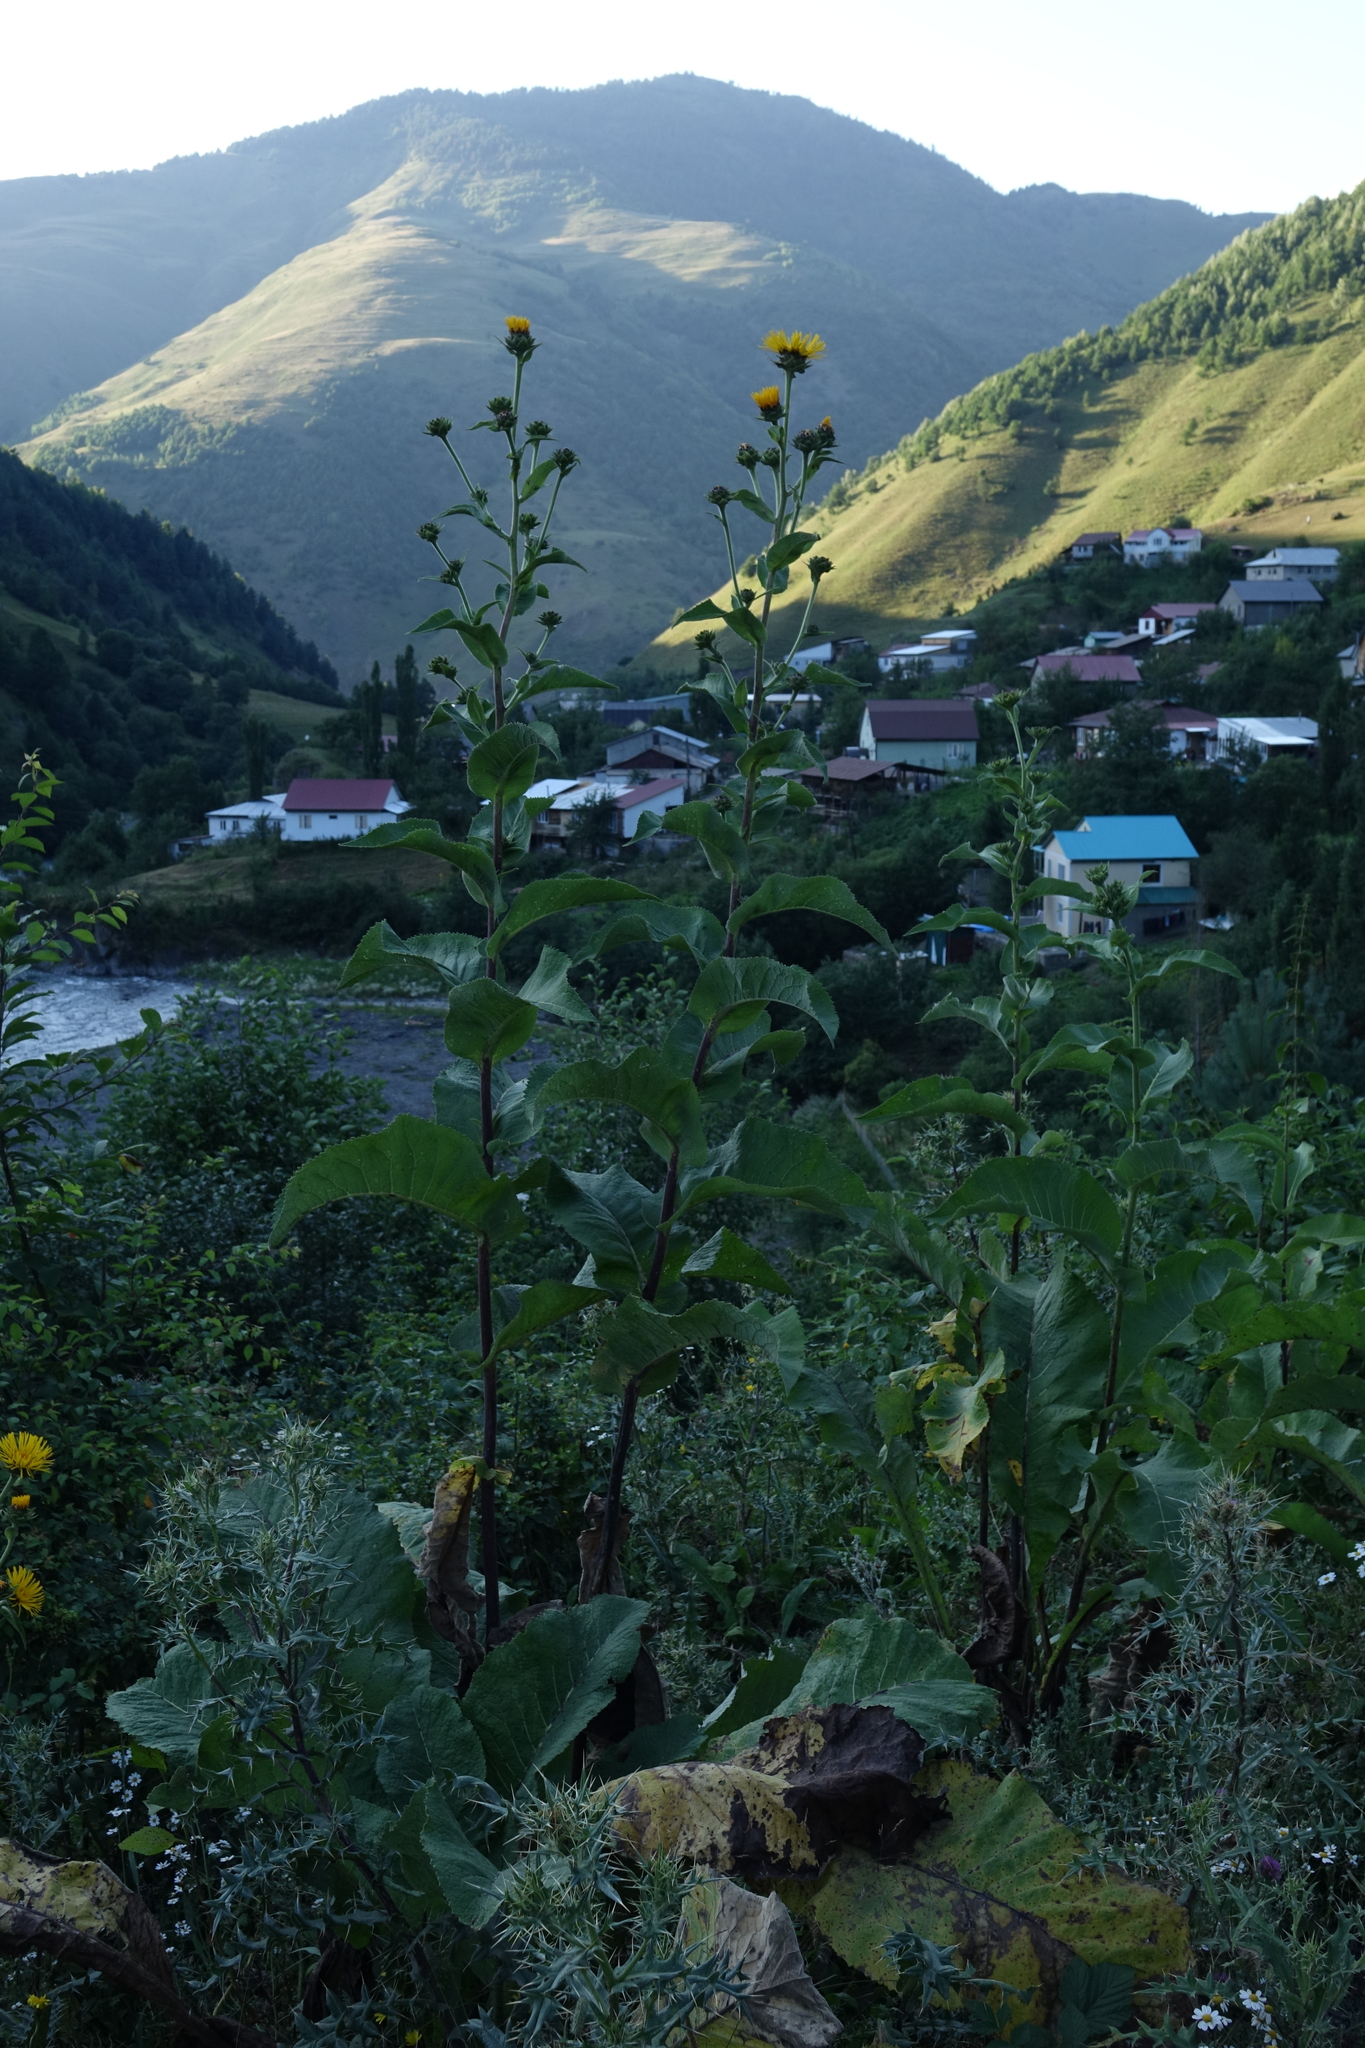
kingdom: Plantae
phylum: Tracheophyta
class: Magnoliopsida
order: Asterales
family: Asteraceae
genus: Inula
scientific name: Inula helenium
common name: Elecampane
